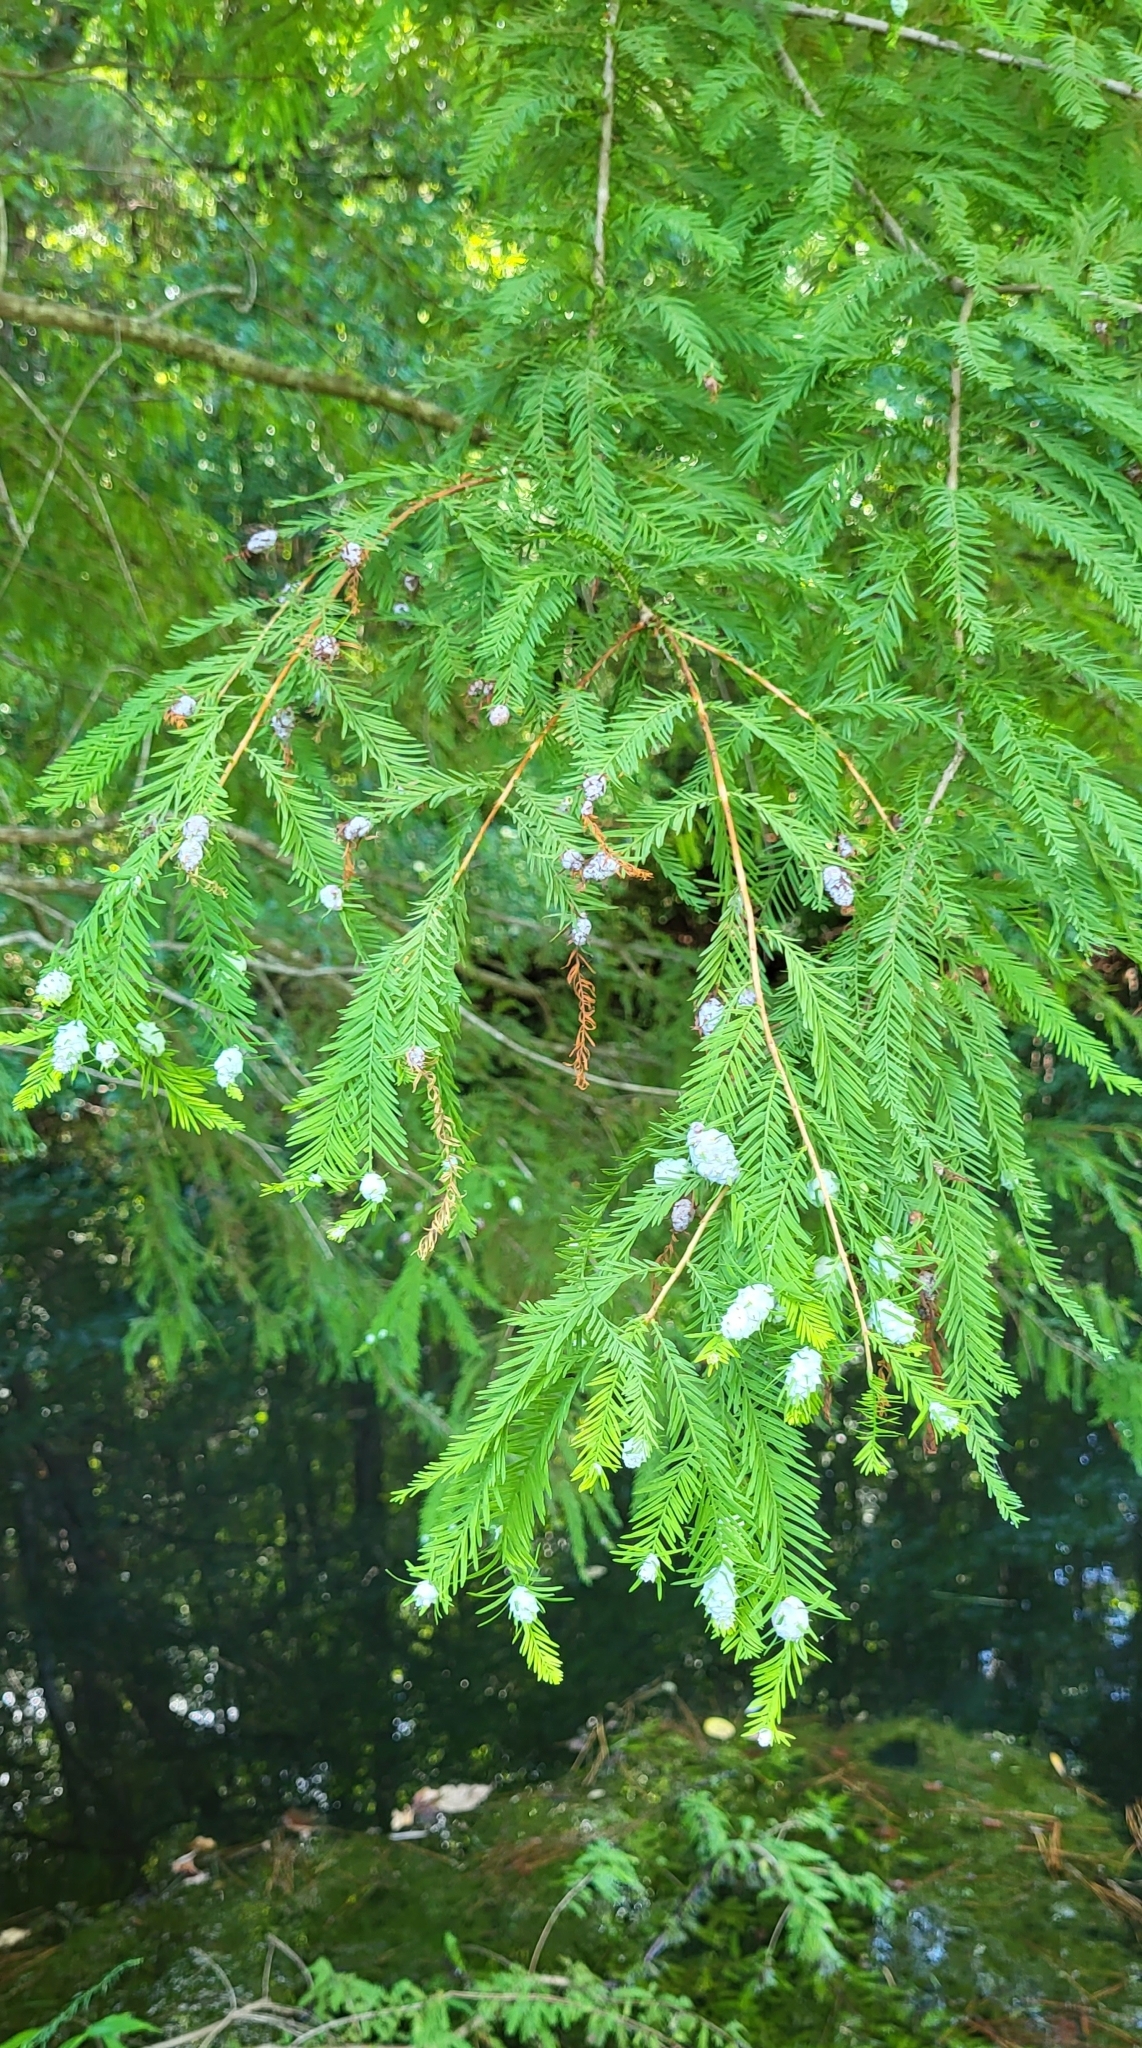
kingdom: Animalia
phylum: Arthropoda
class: Insecta
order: Diptera
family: Cecidomyiidae
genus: Taxodiomyia
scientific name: Taxodiomyia cupressiananassa
